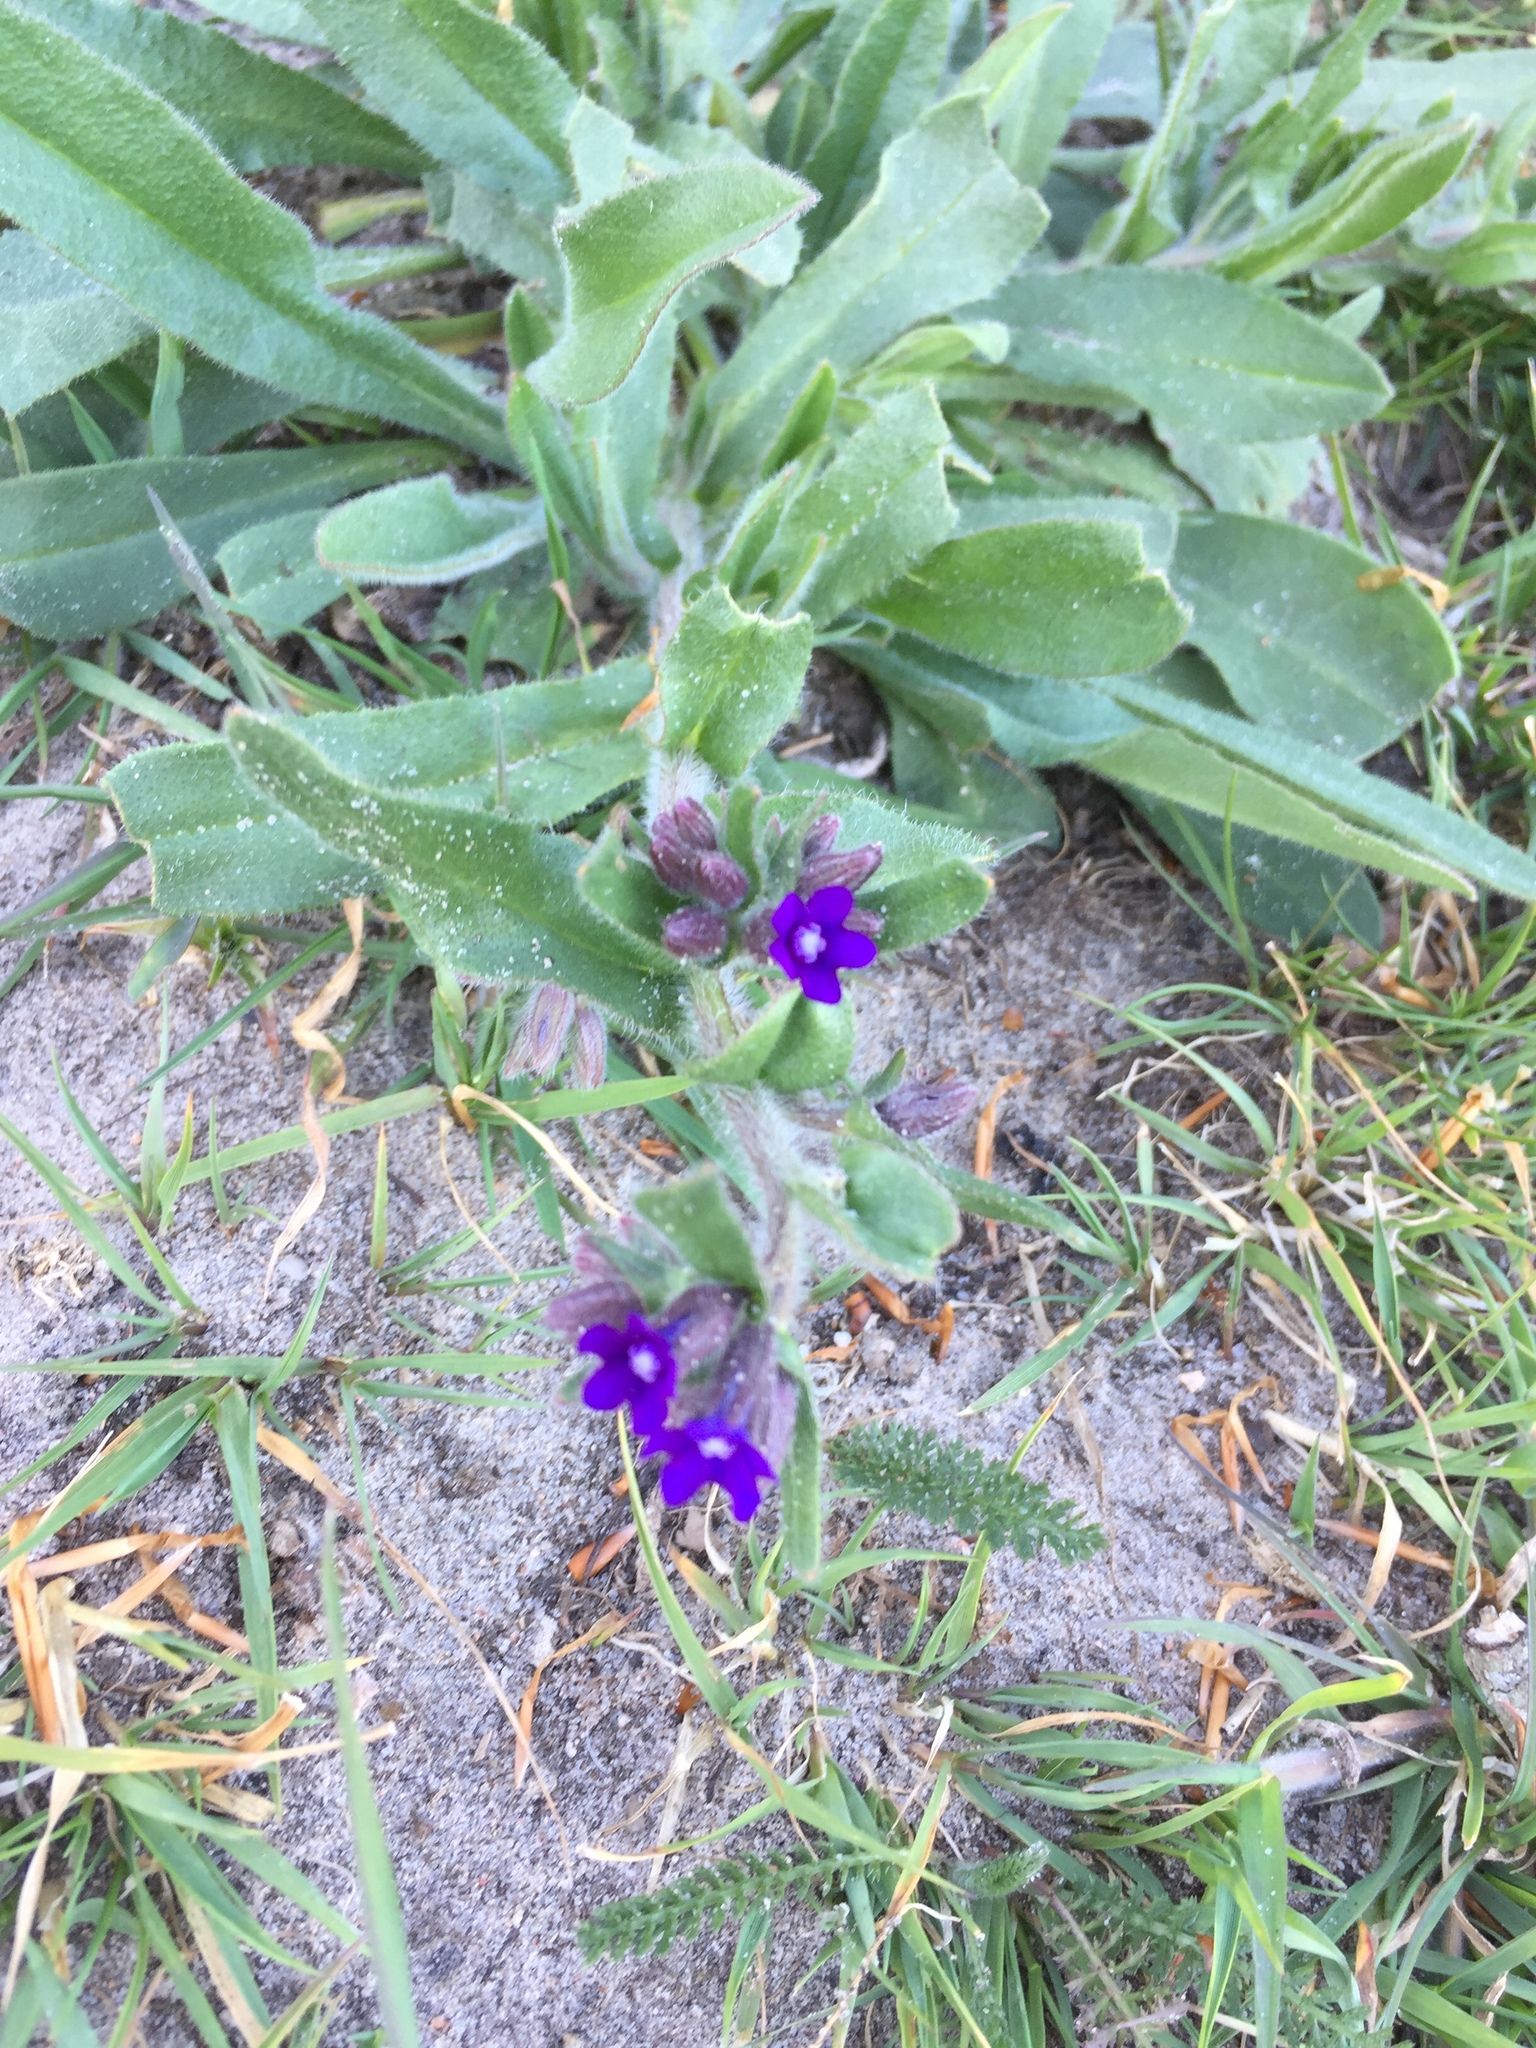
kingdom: Plantae
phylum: Tracheophyta
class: Magnoliopsida
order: Boraginales
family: Boraginaceae
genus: Anchusa
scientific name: Anchusa officinalis
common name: Alkanet
